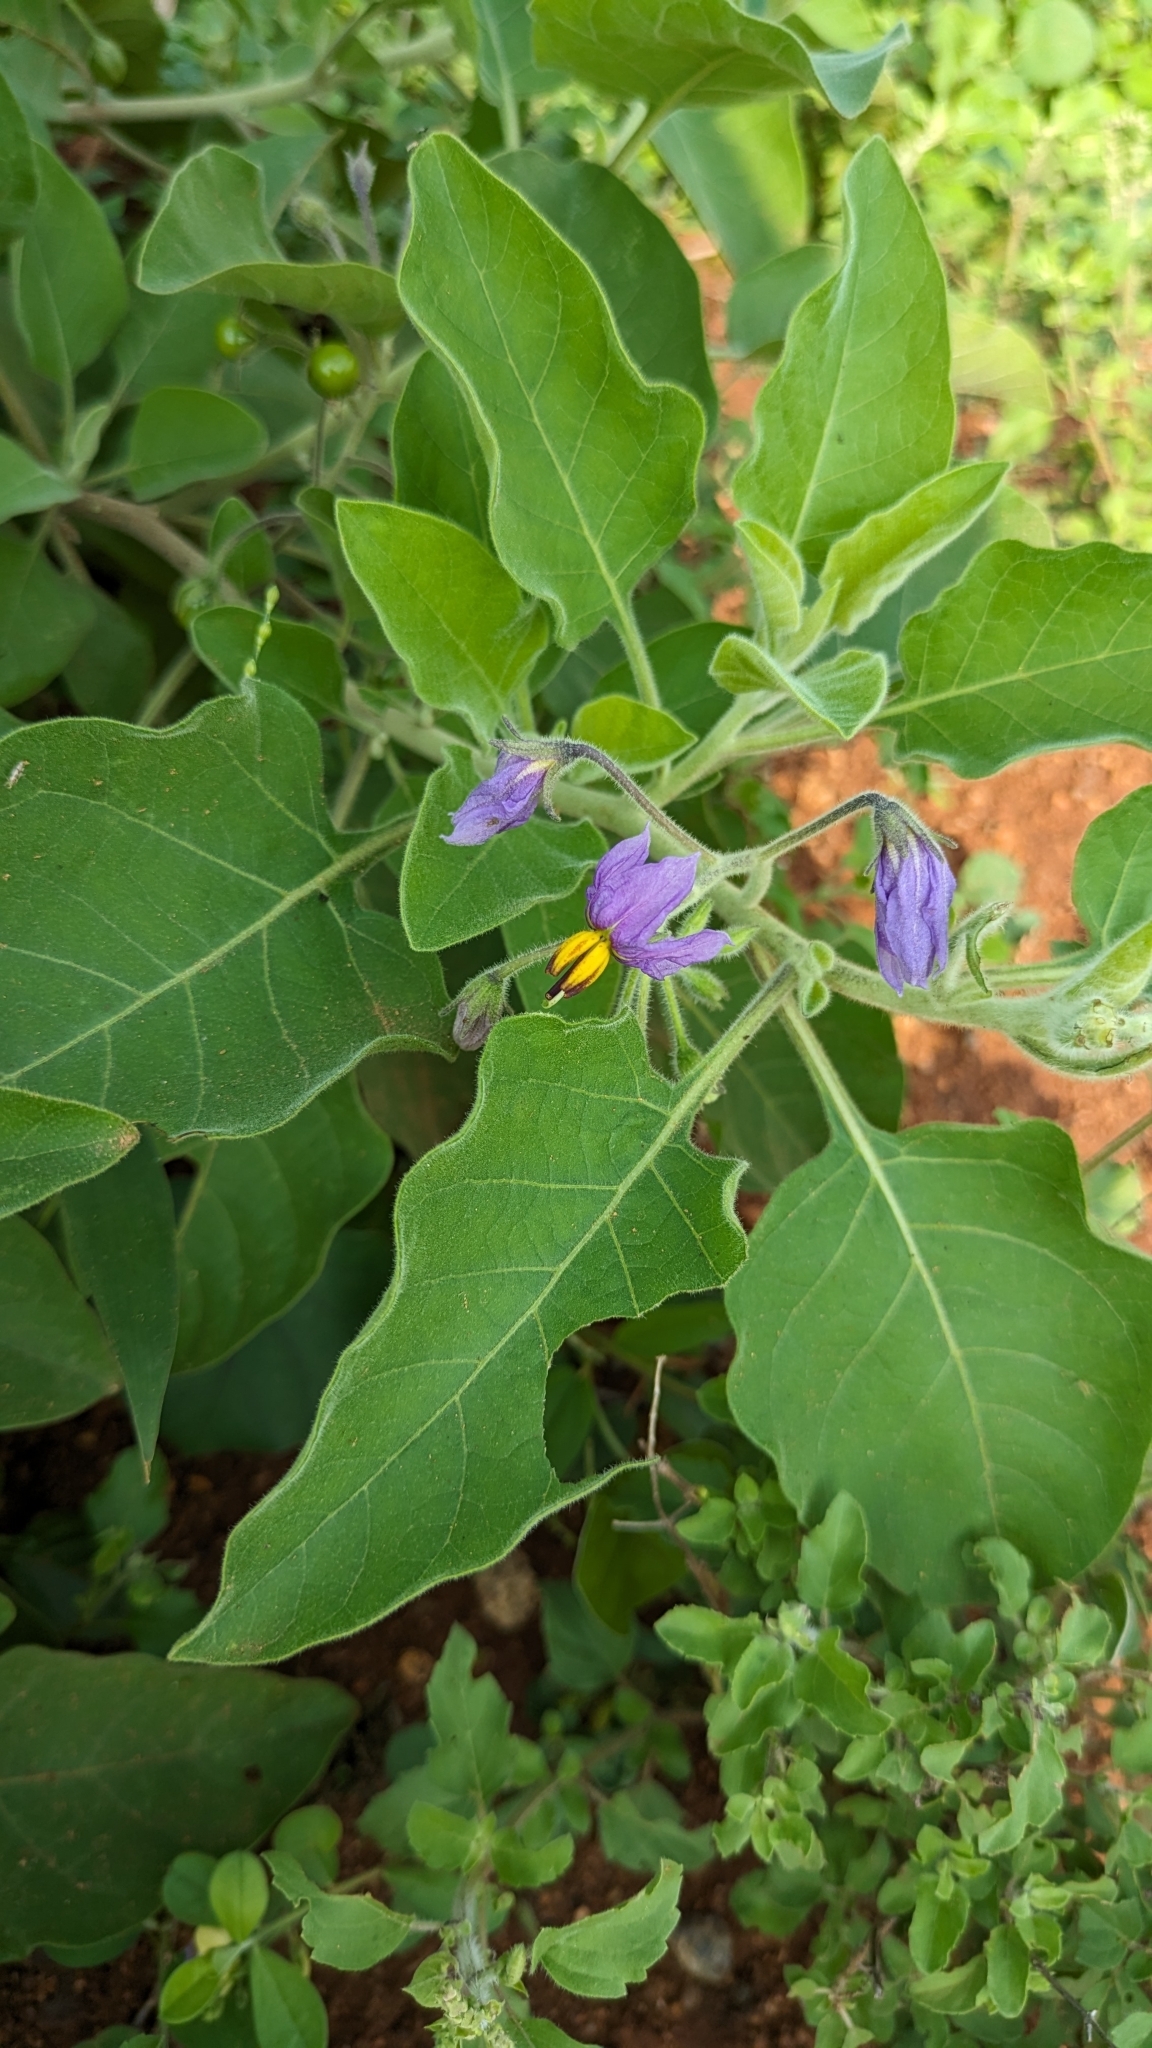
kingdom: Plantae
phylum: Tracheophyta
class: Magnoliopsida
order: Solanales
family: Solanaceae
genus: Solanum
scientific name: Solanum pubescens
